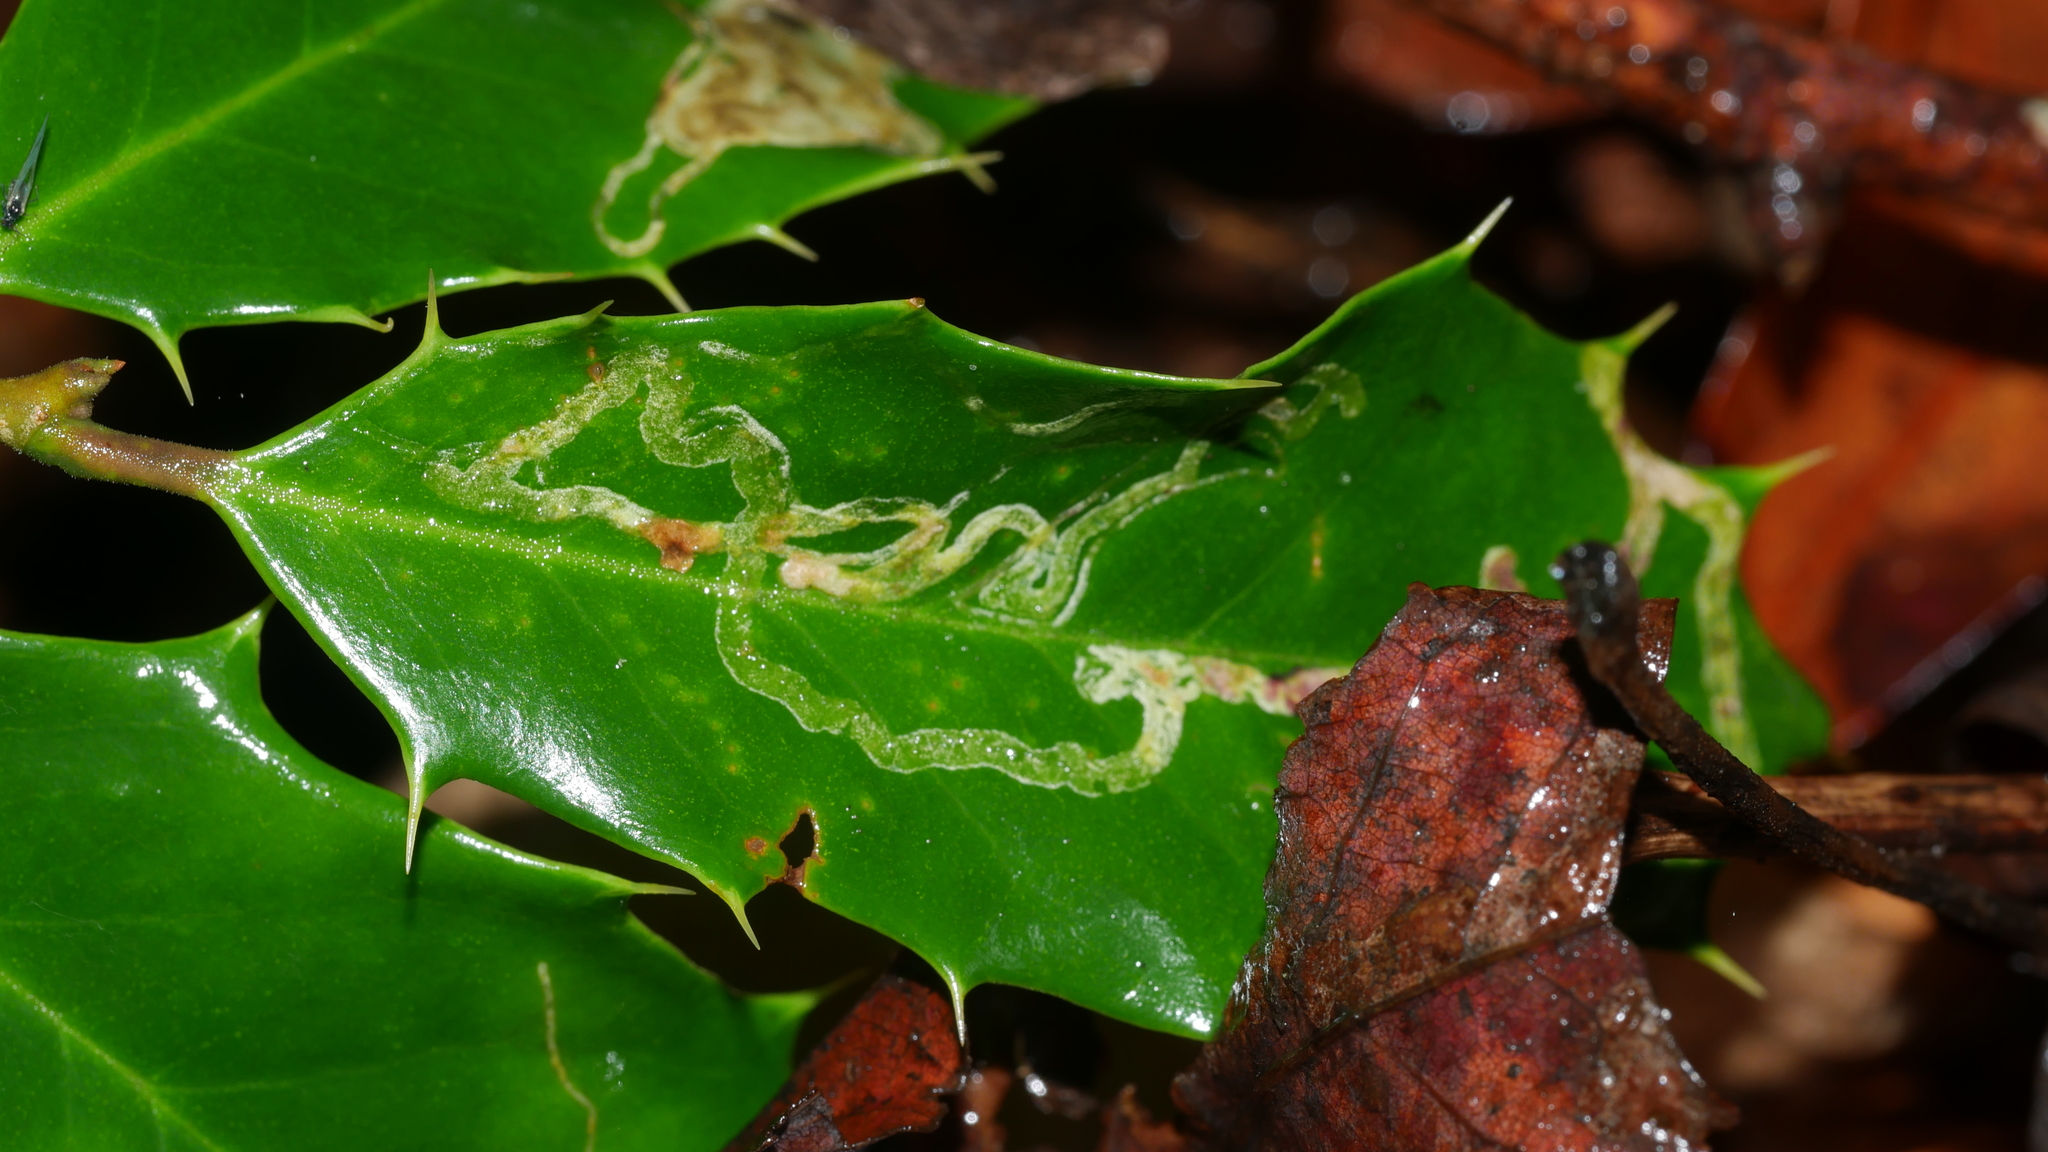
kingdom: Animalia
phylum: Arthropoda
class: Insecta
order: Diptera
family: Agromyzidae
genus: Phytomyza
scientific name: Phytomyza opacae
